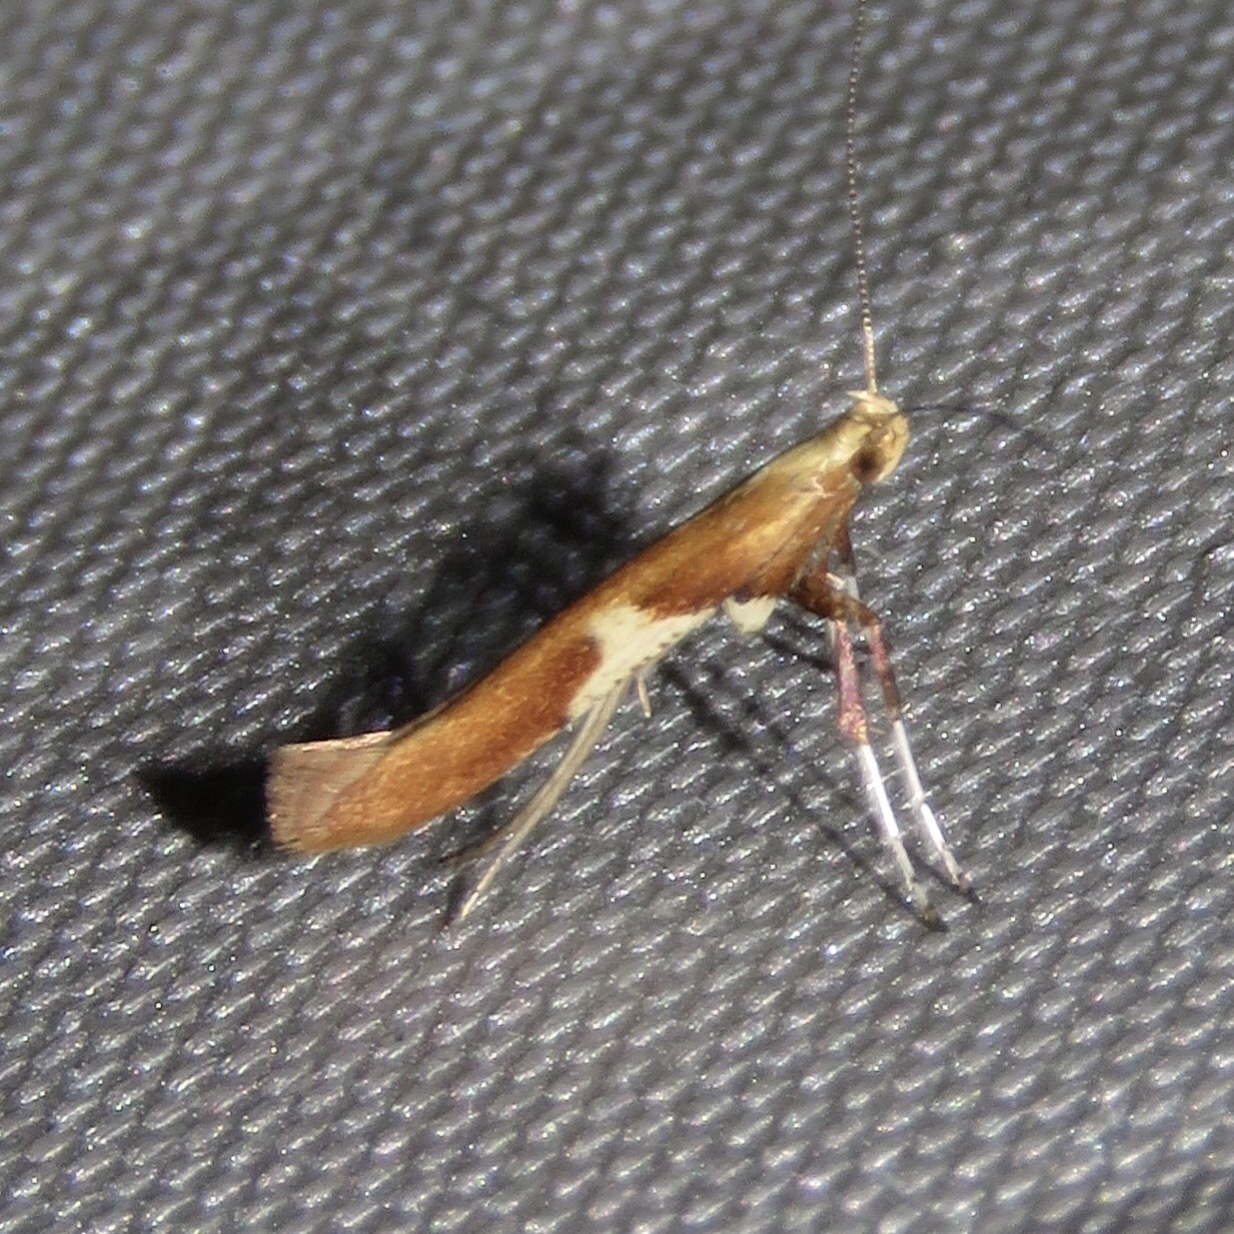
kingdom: Animalia
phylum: Arthropoda
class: Insecta
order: Lepidoptera
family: Gracillariidae
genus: Caloptilia
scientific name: Caloptilia stigmatella
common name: White-triangle slender
